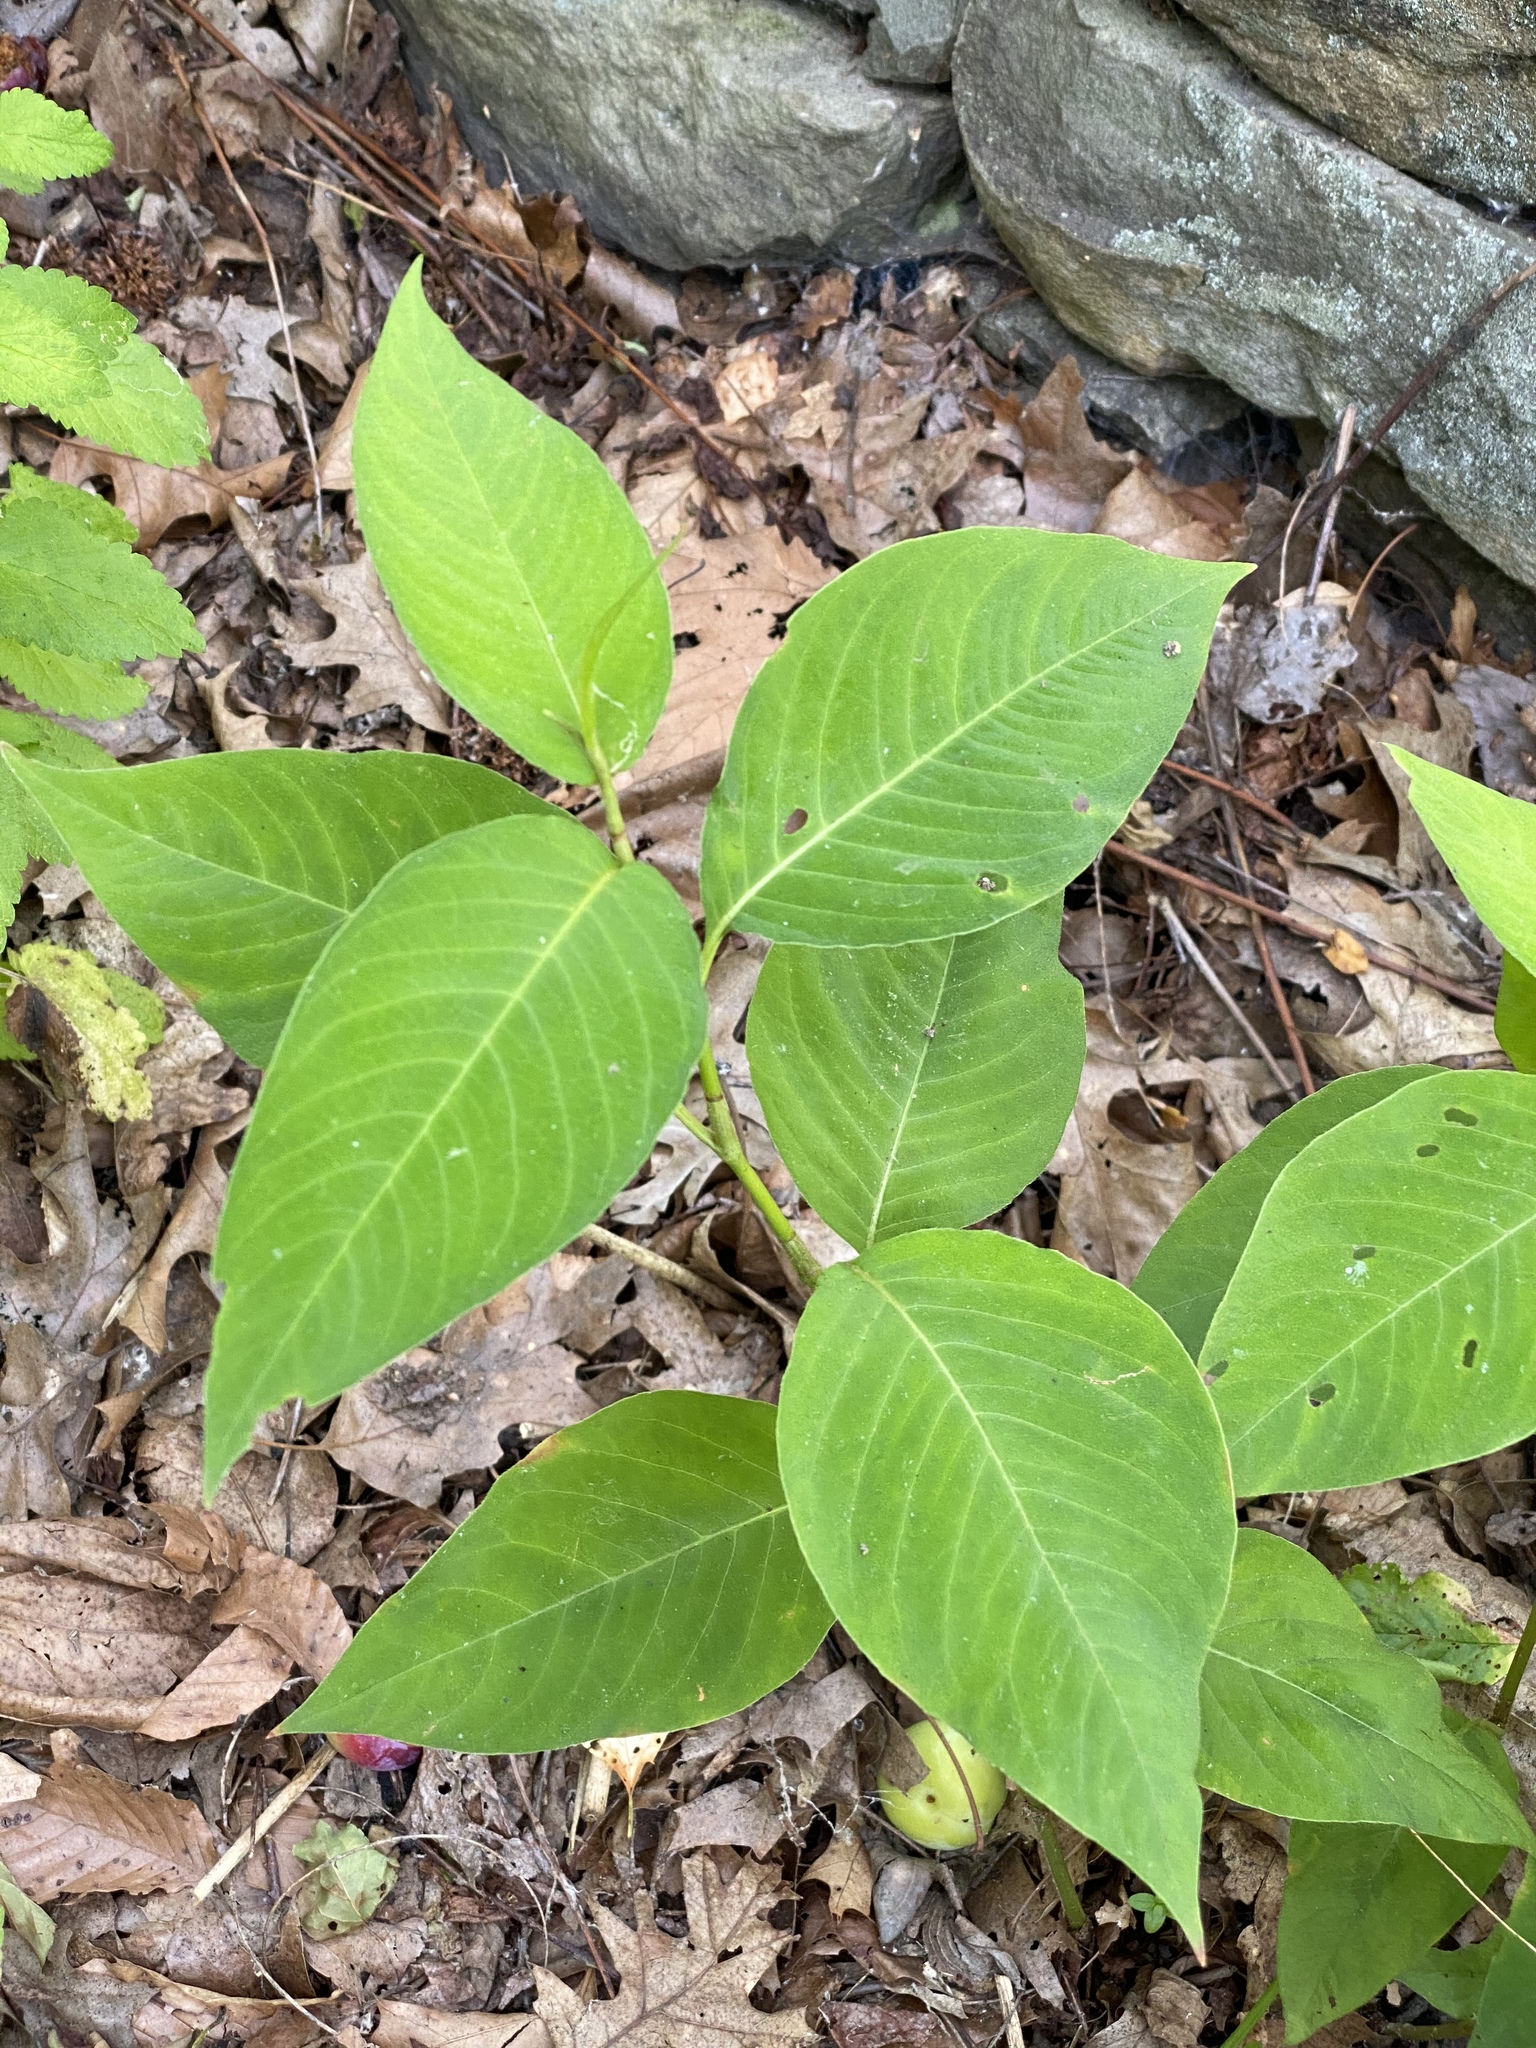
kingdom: Plantae
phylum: Tracheophyta
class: Magnoliopsida
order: Caryophyllales
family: Polygonaceae
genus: Persicaria
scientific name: Persicaria virginiana
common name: Jumpseed
